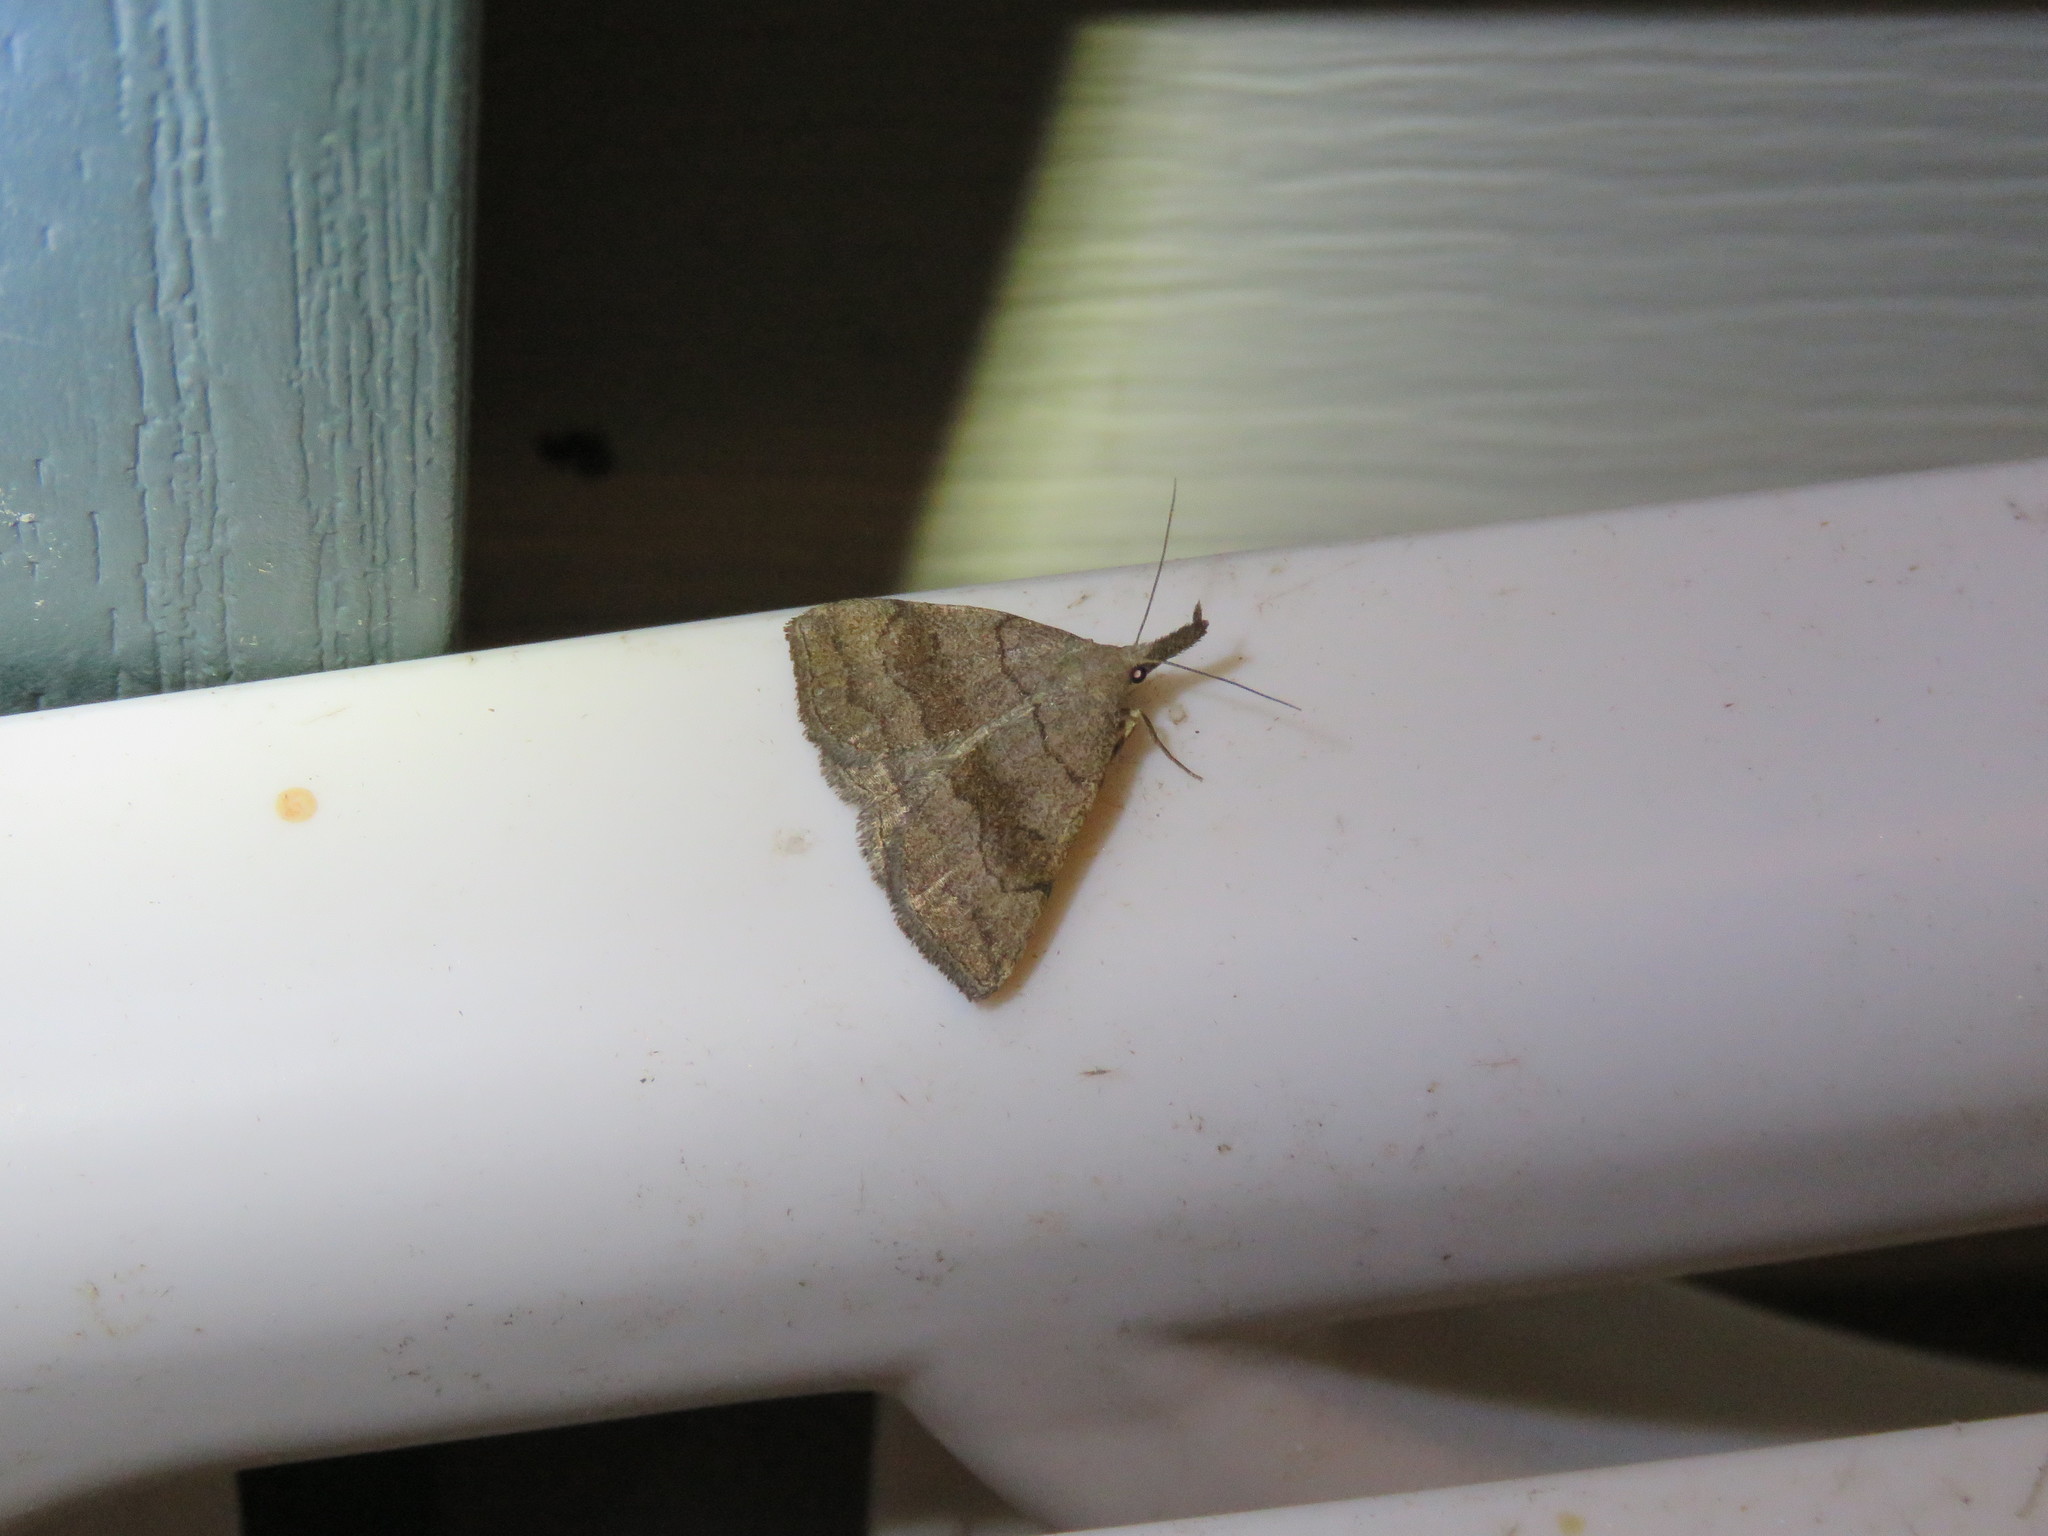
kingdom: Animalia
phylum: Arthropoda
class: Insecta
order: Lepidoptera
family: Erebidae
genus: Phalaenostola
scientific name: Phalaenostola metonalis
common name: Pale phalaenostola moth
